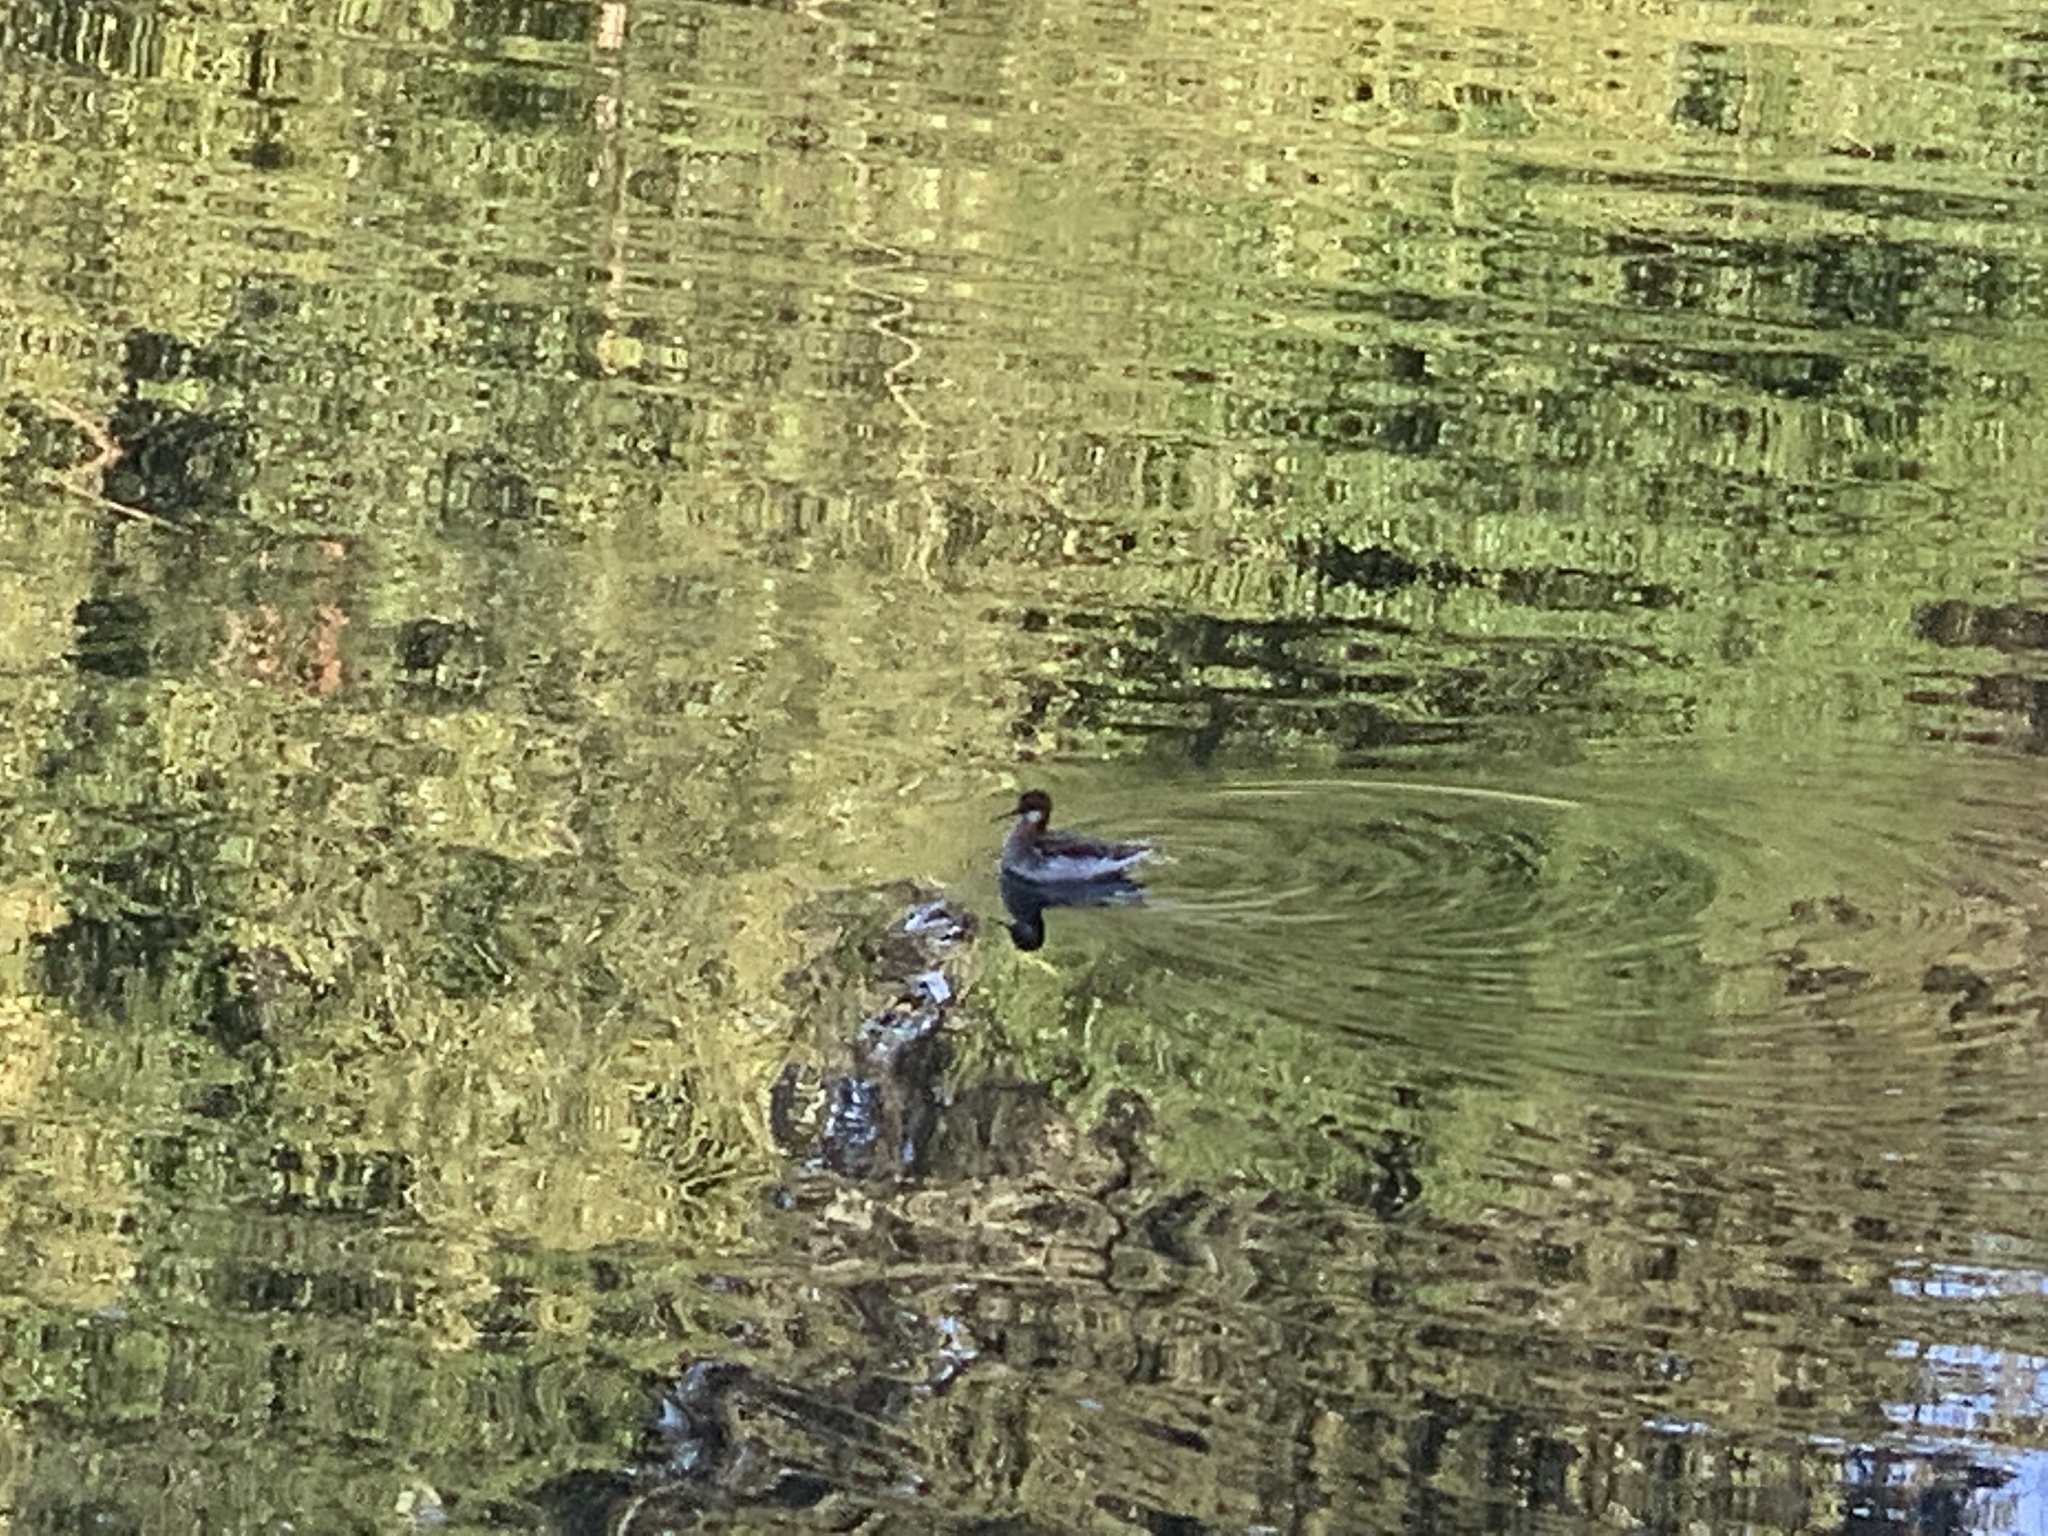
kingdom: Animalia
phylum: Chordata
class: Aves
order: Charadriiformes
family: Scolopacidae
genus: Phalaropus
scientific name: Phalaropus lobatus
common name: Red-necked phalarope
